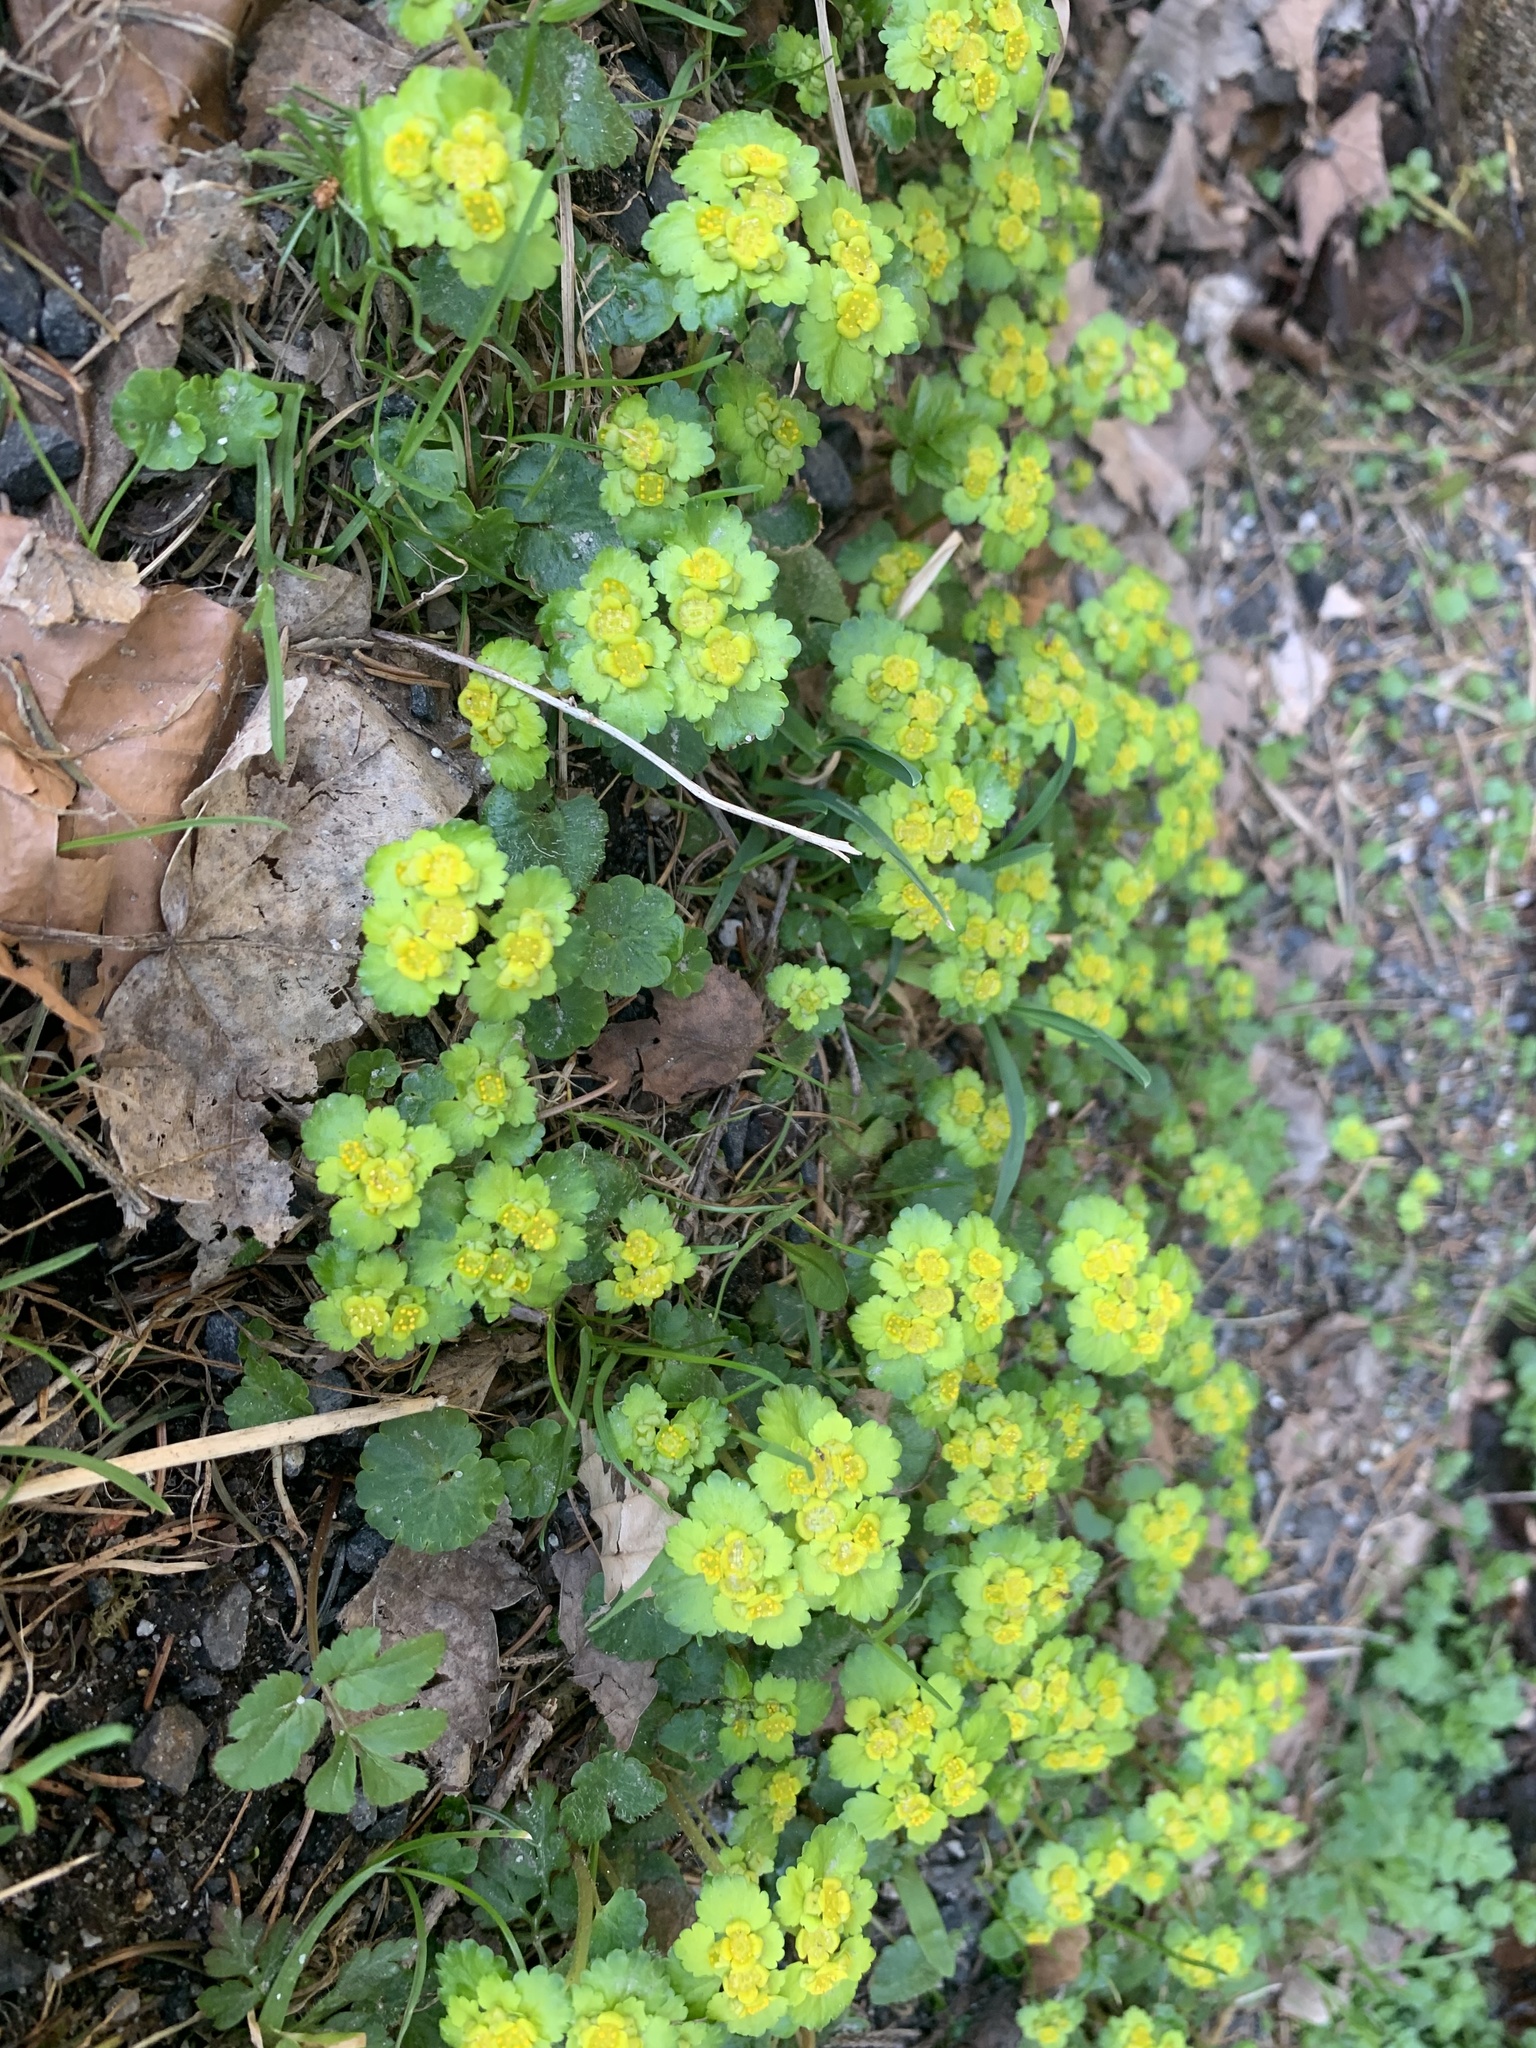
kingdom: Plantae
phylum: Tracheophyta
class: Magnoliopsida
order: Saxifragales
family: Saxifragaceae
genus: Chrysosplenium
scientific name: Chrysosplenium alternifolium
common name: Alternate-leaved golden-saxifrage
